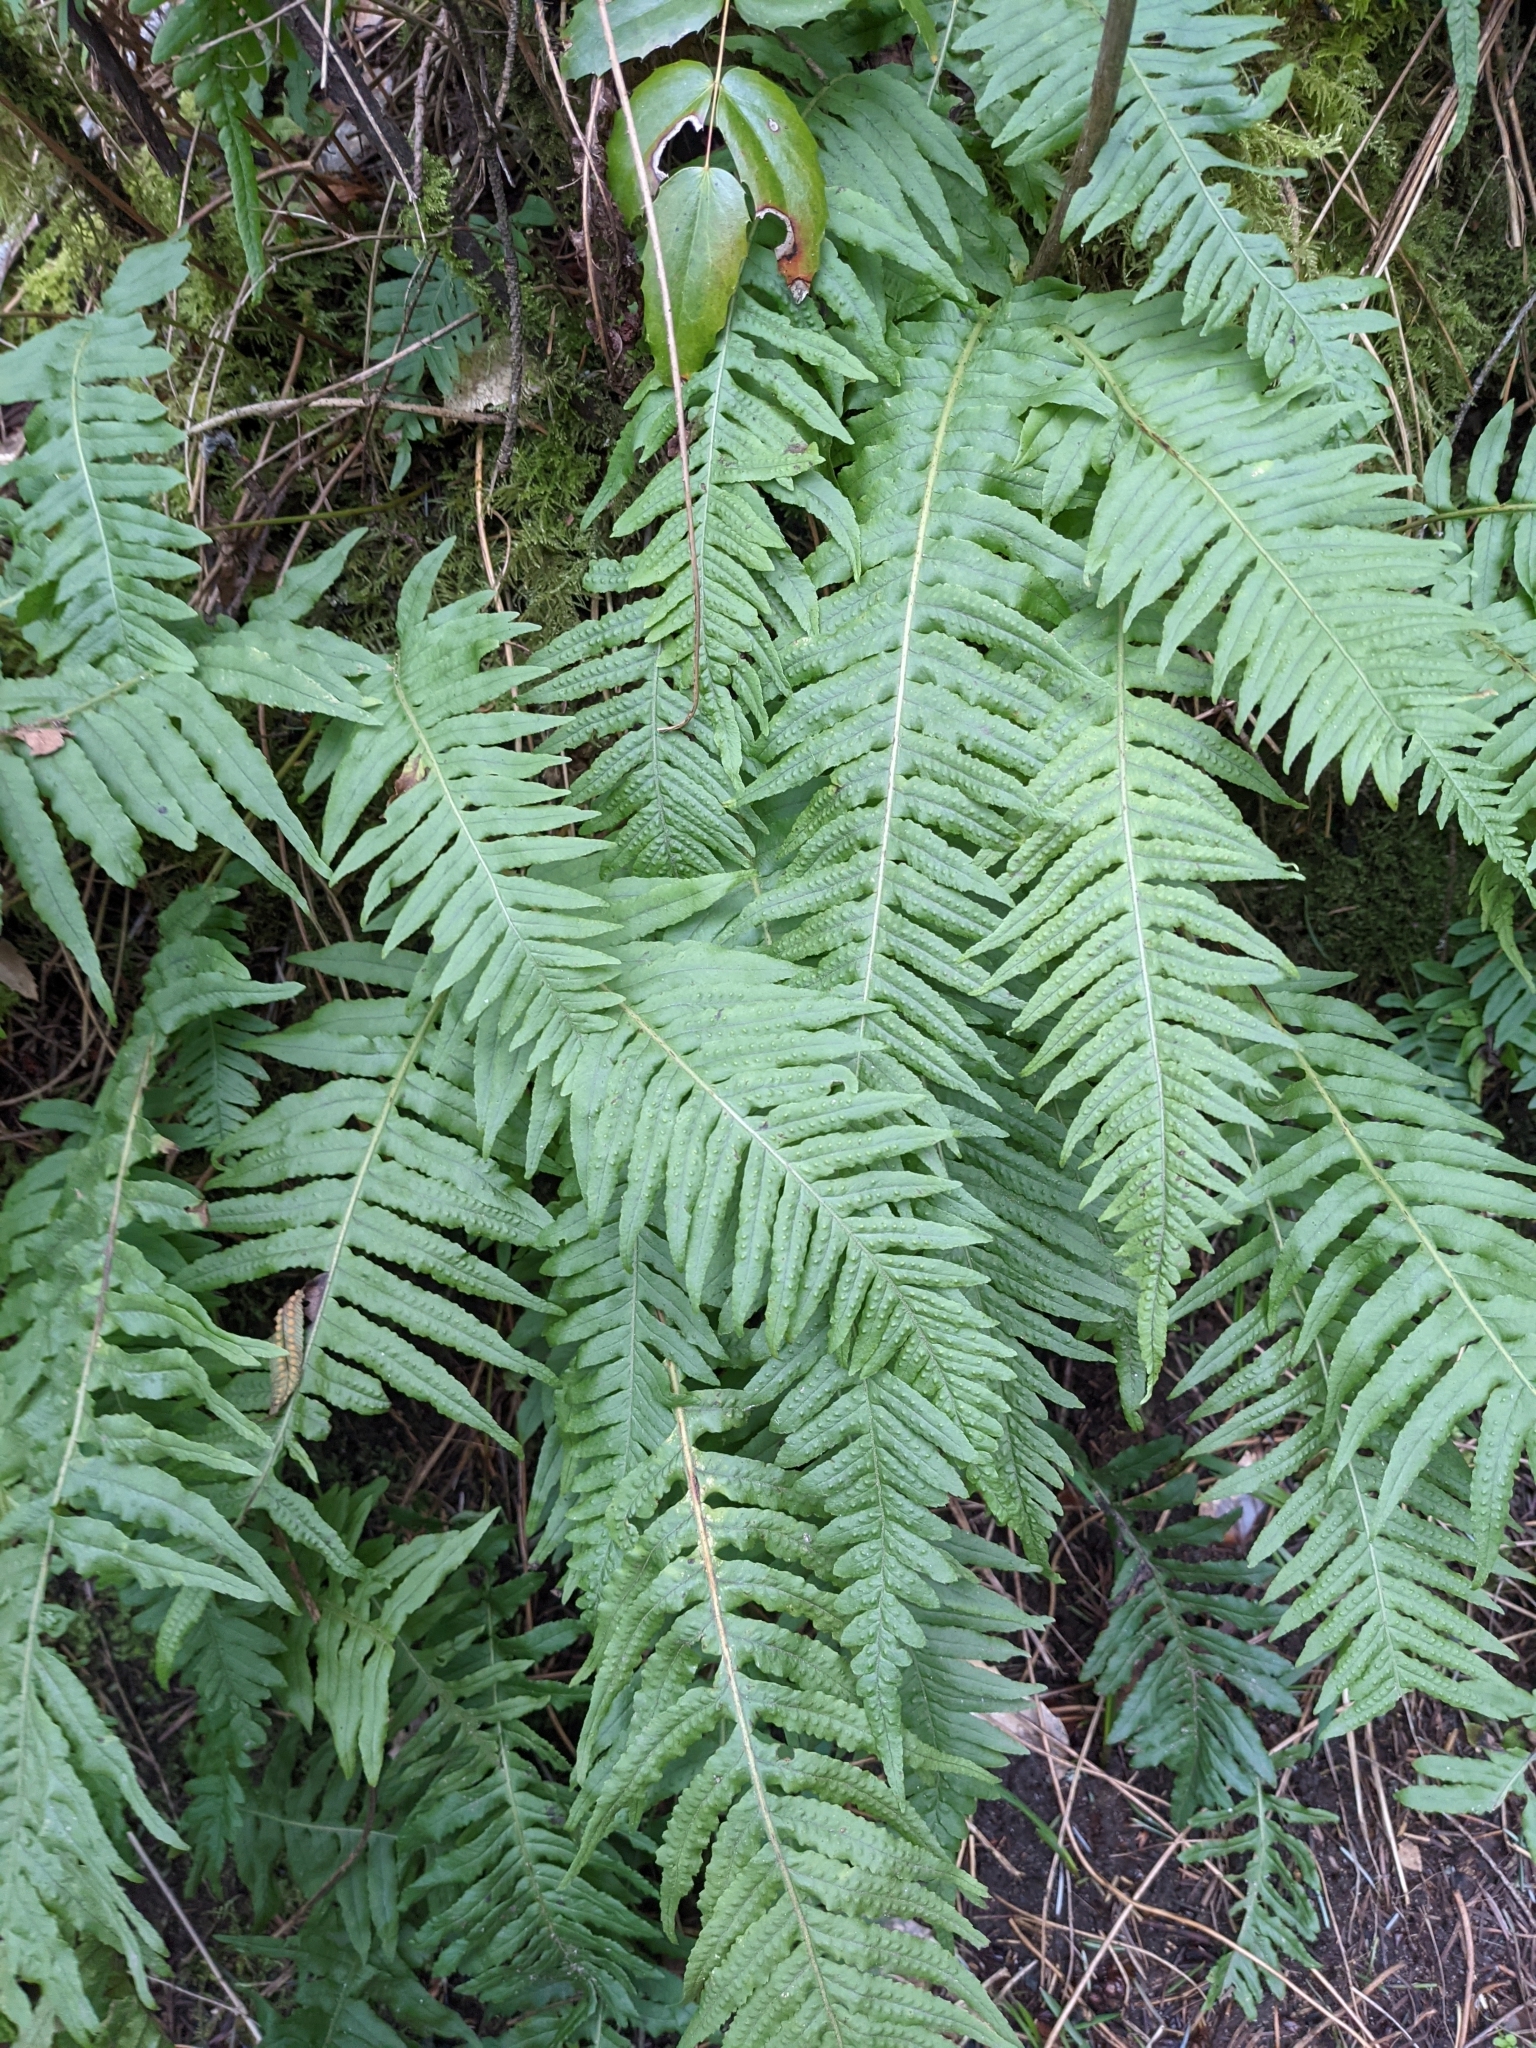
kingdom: Plantae
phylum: Tracheophyta
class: Polypodiopsida
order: Polypodiales
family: Polypodiaceae
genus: Polypodium
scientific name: Polypodium glycyrrhiza
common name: Licorice fern
